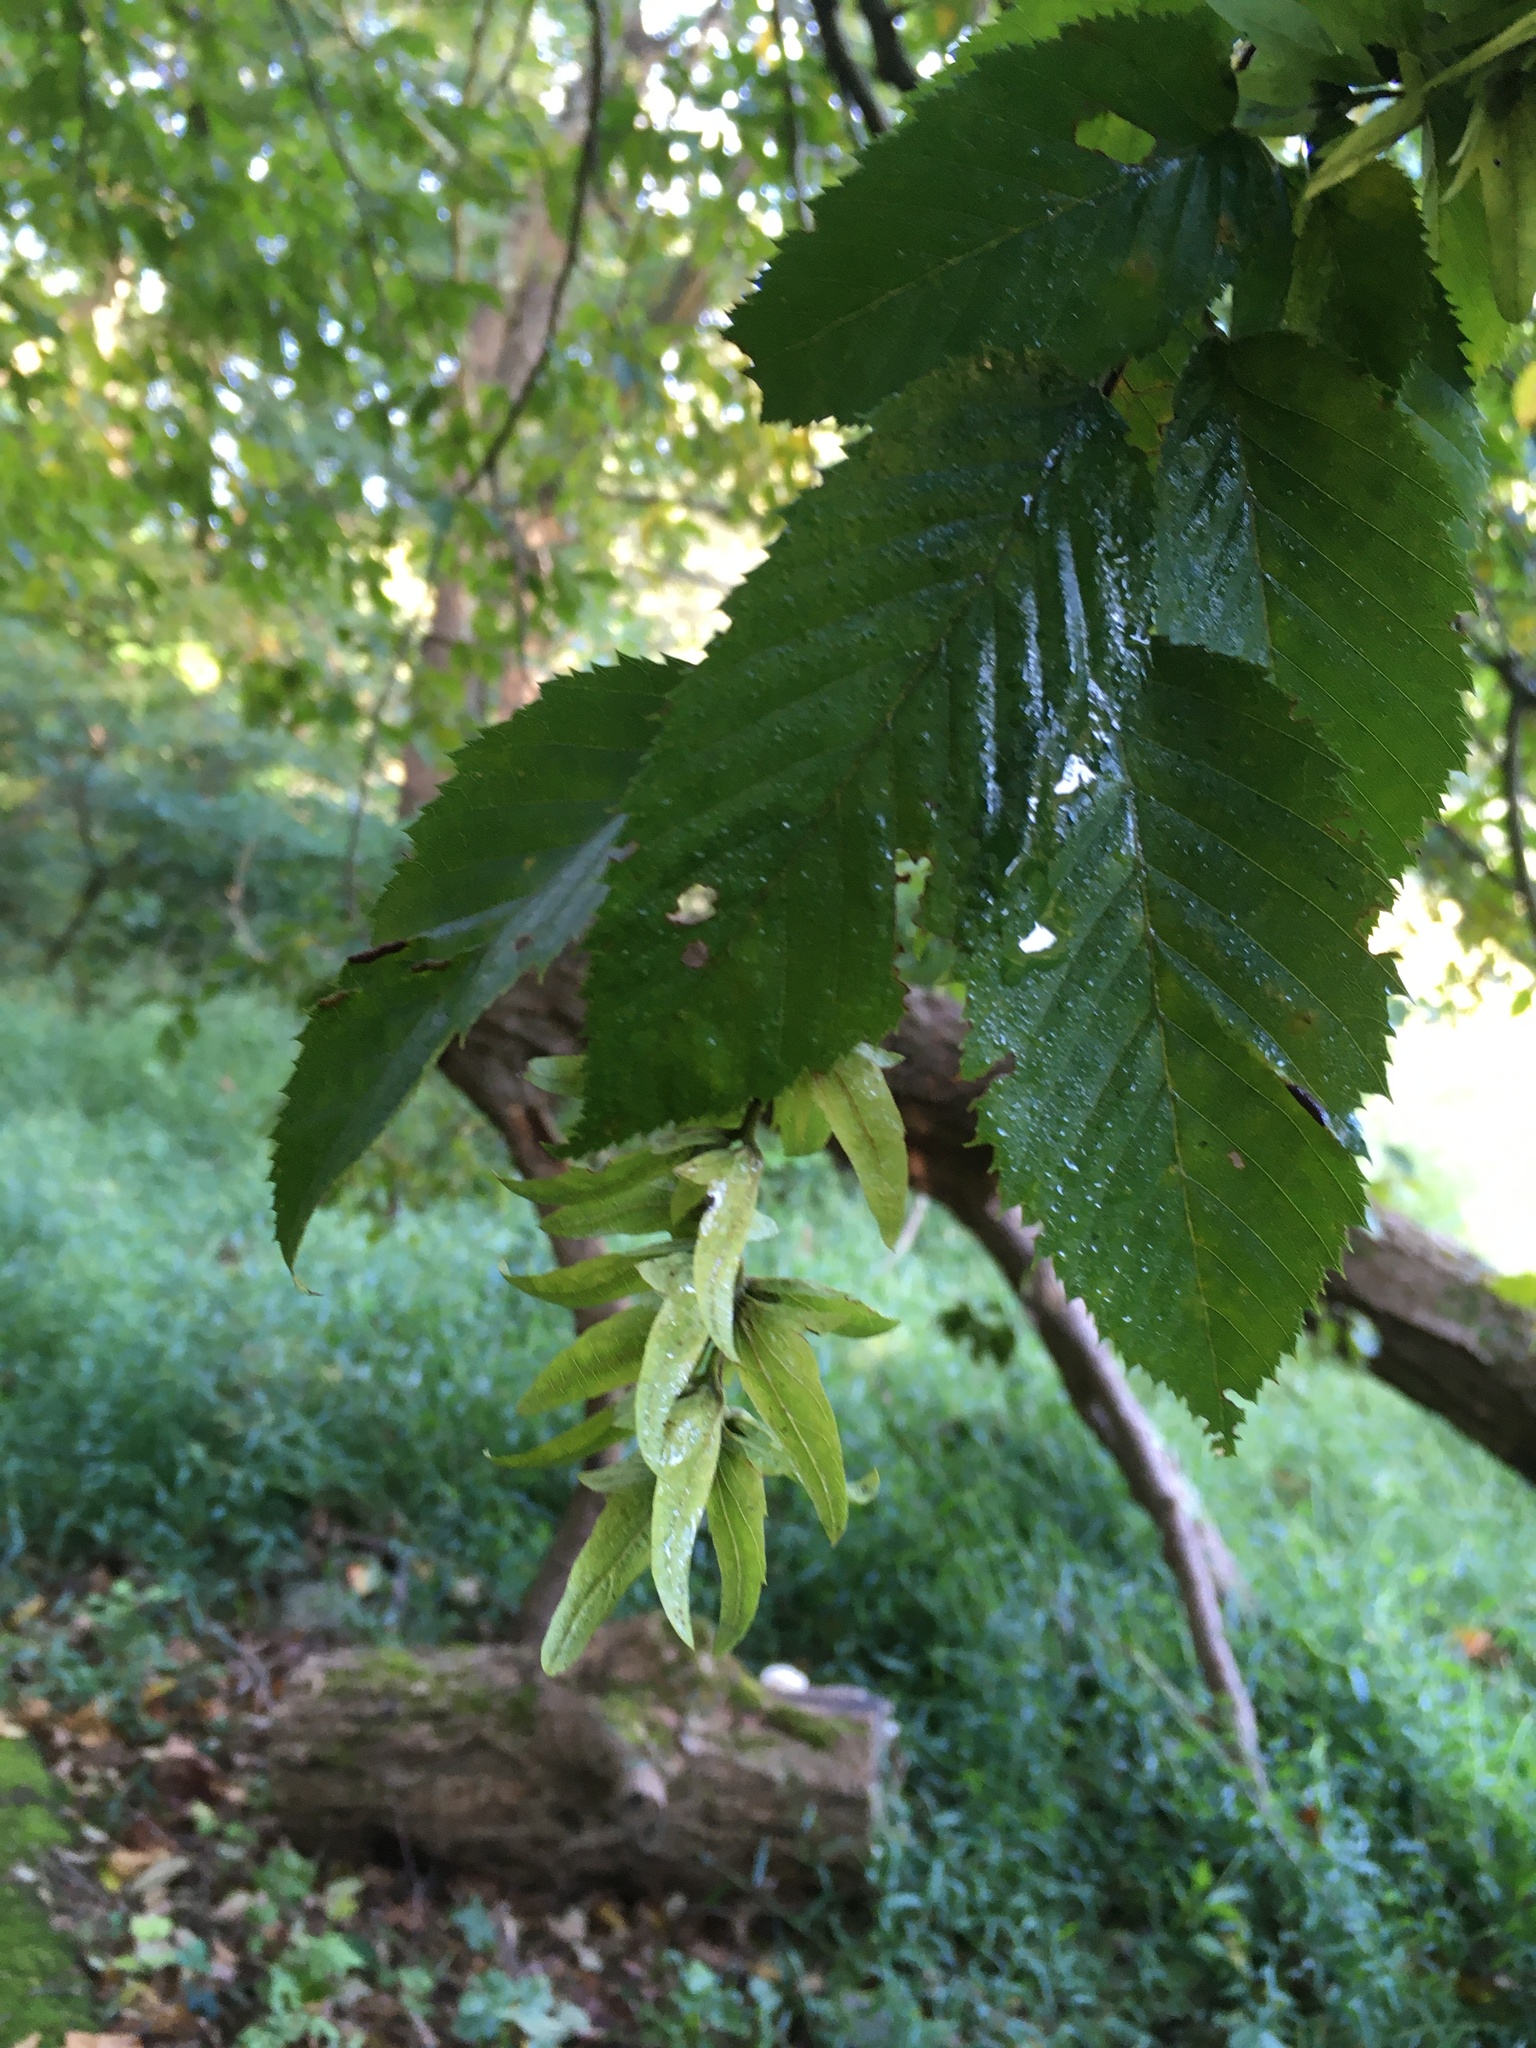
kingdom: Plantae
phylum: Tracheophyta
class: Magnoliopsida
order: Fagales
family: Betulaceae
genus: Carpinus
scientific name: Carpinus caroliniana
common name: American hornbeam
